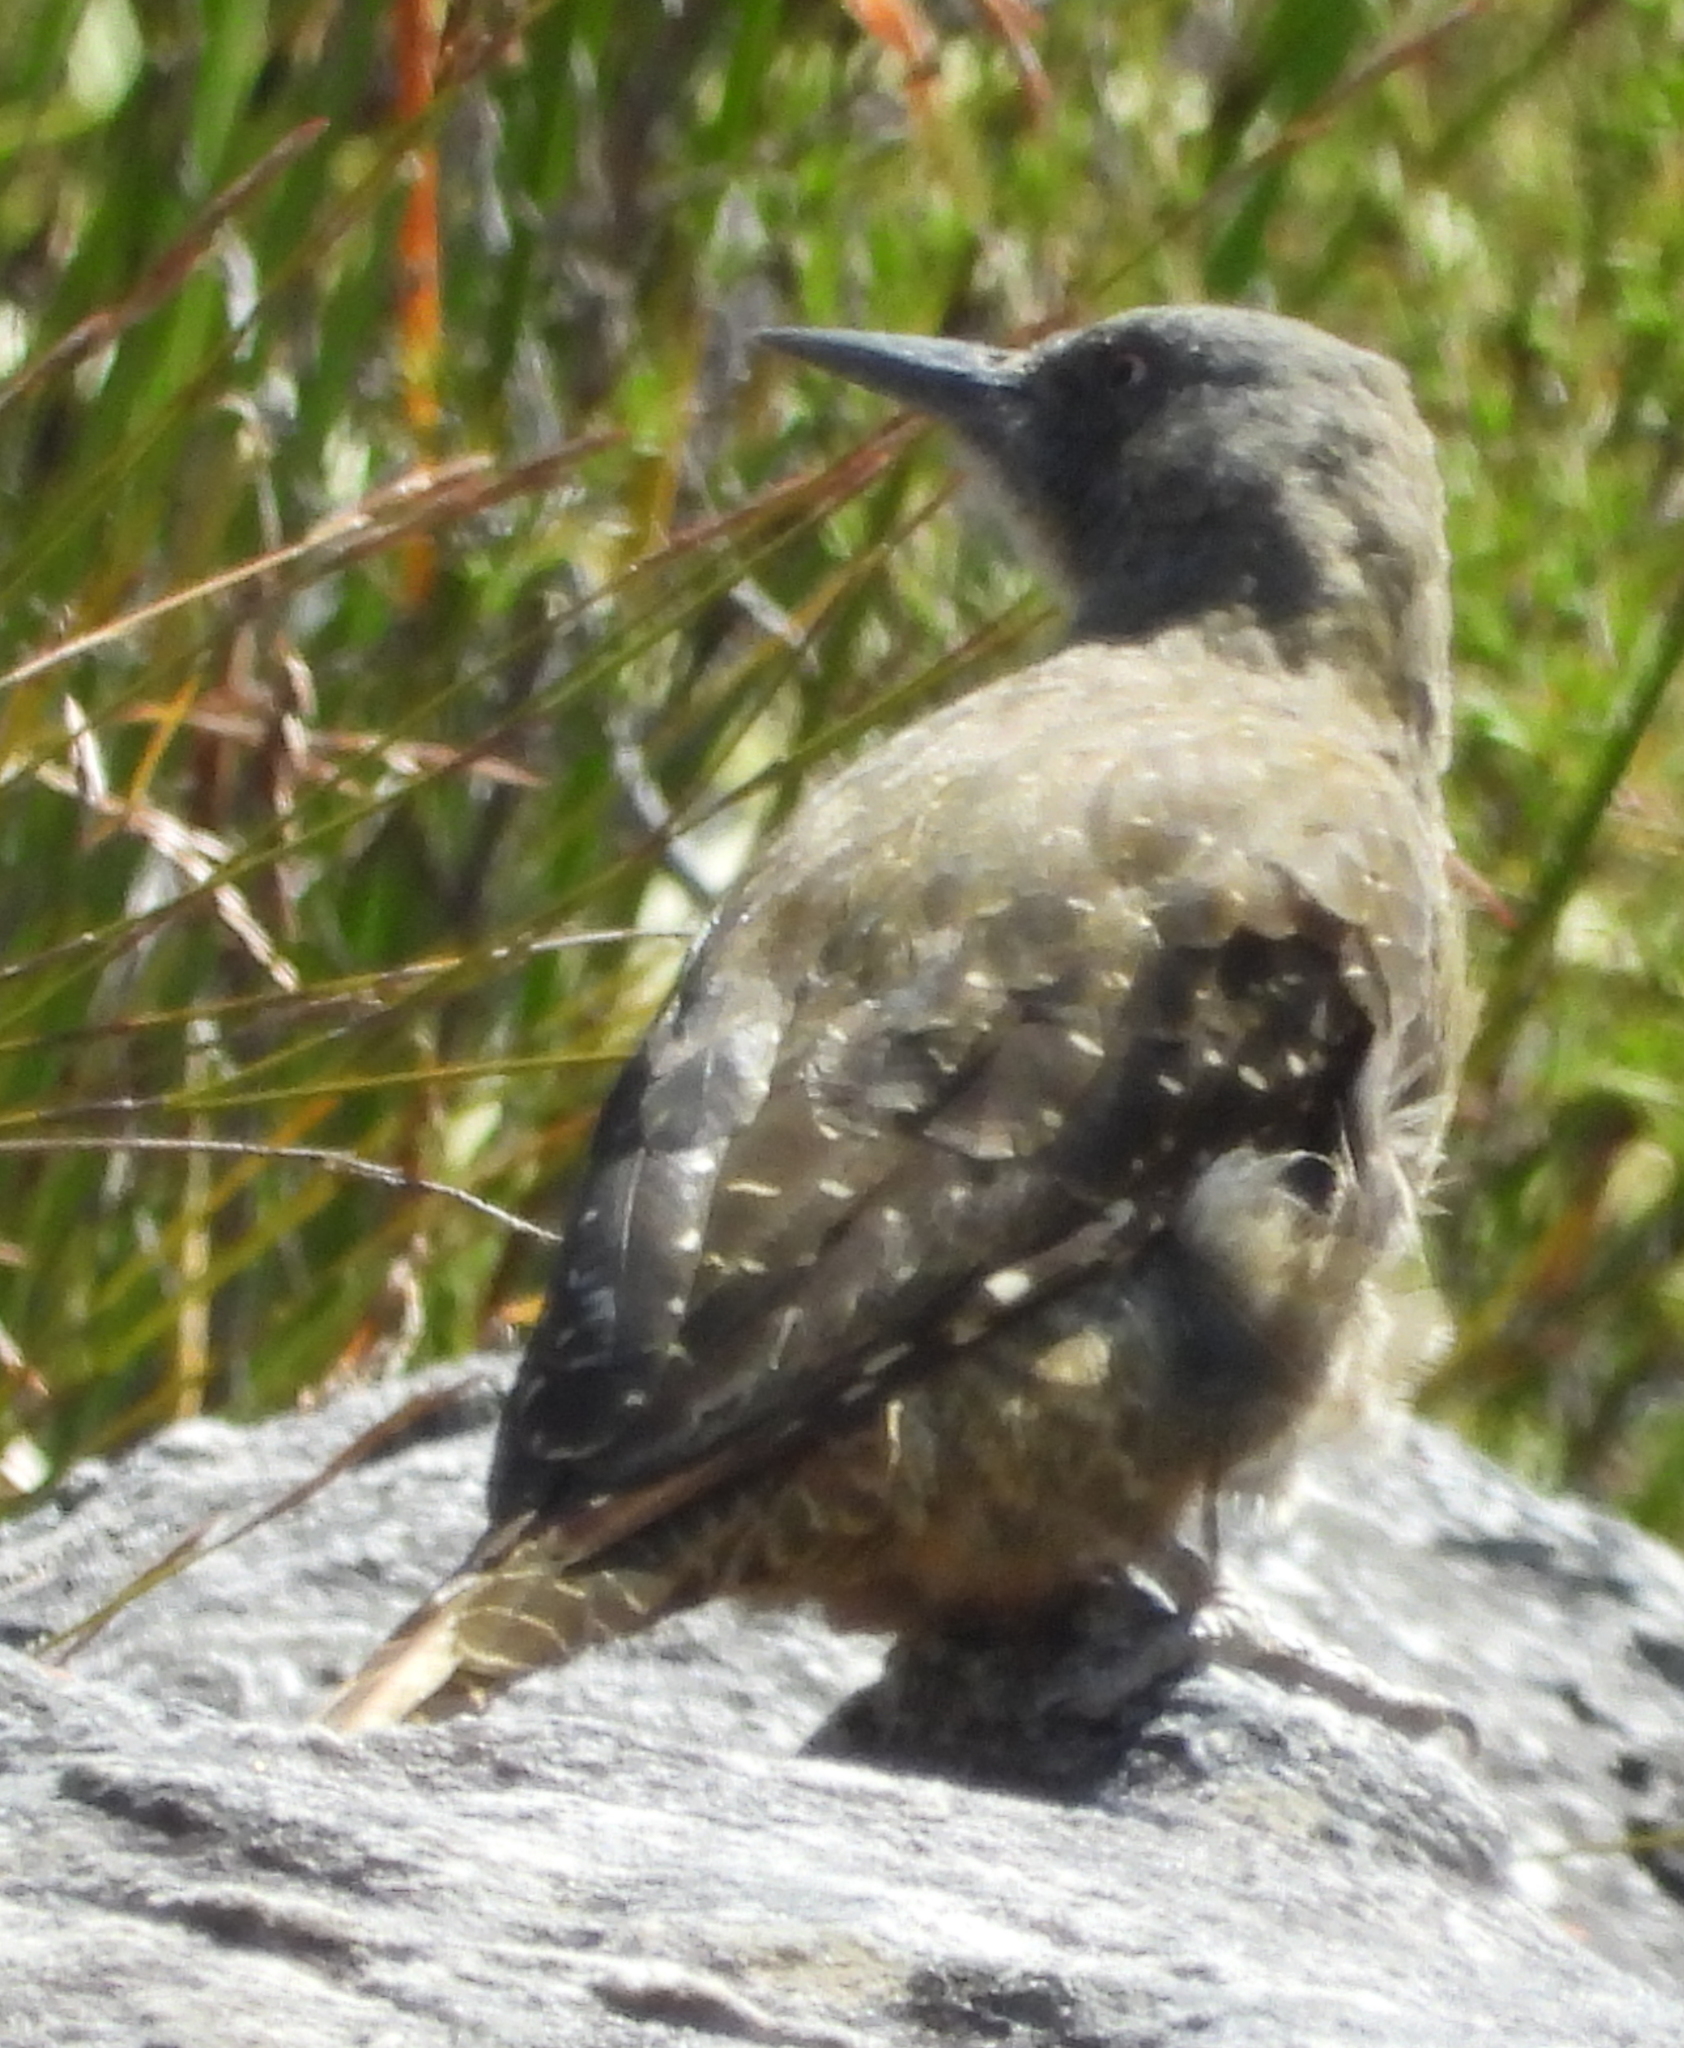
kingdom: Animalia
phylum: Chordata
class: Aves
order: Piciformes
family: Picidae
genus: Geocolaptes
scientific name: Geocolaptes olivaceus
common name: Ground woodpecker
